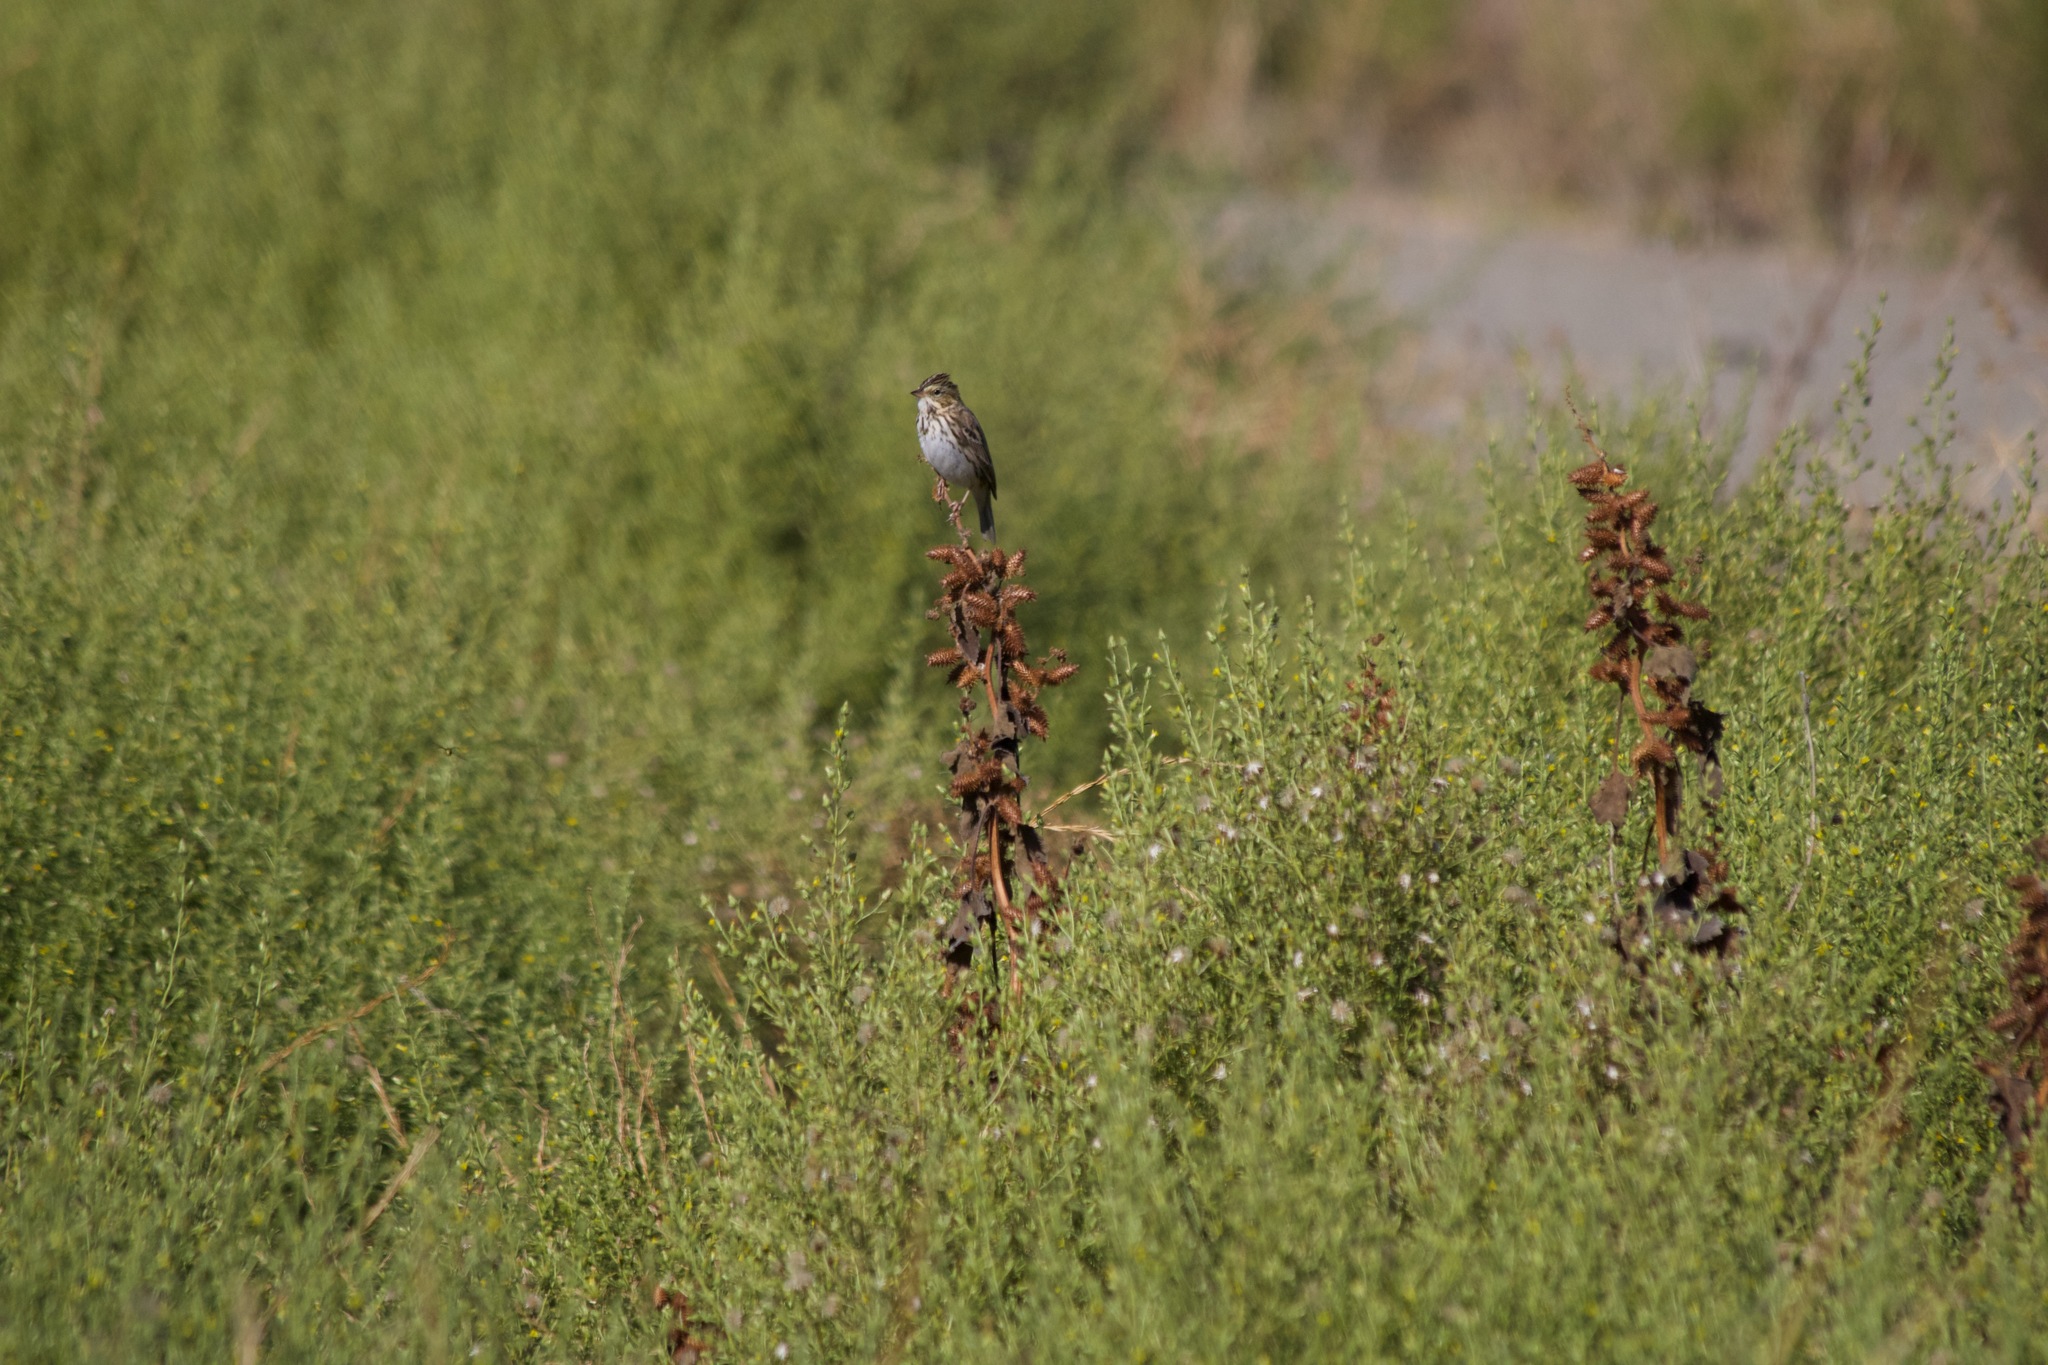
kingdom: Animalia
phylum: Chordata
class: Aves
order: Passeriformes
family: Passerellidae
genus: Passerculus
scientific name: Passerculus sandwichensis
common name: Savannah sparrow
